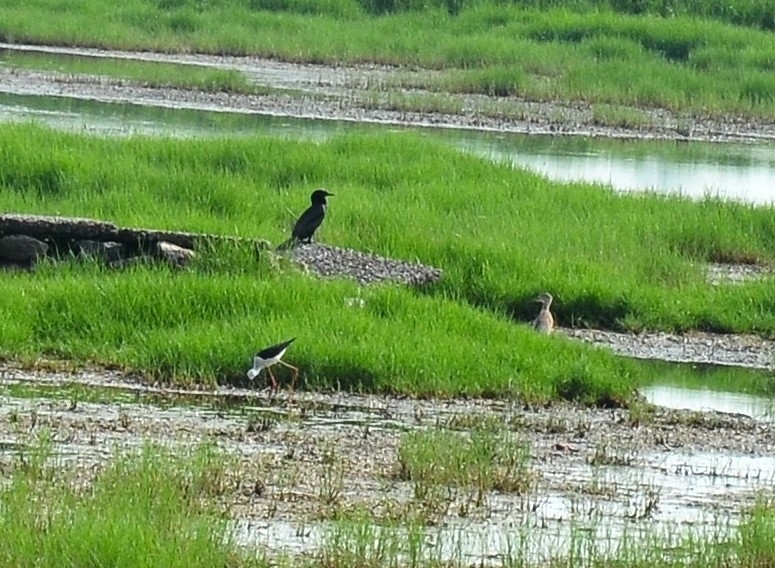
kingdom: Animalia
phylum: Chordata
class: Aves
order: Charadriiformes
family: Recurvirostridae
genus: Himantopus
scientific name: Himantopus himantopus
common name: Black-winged stilt
